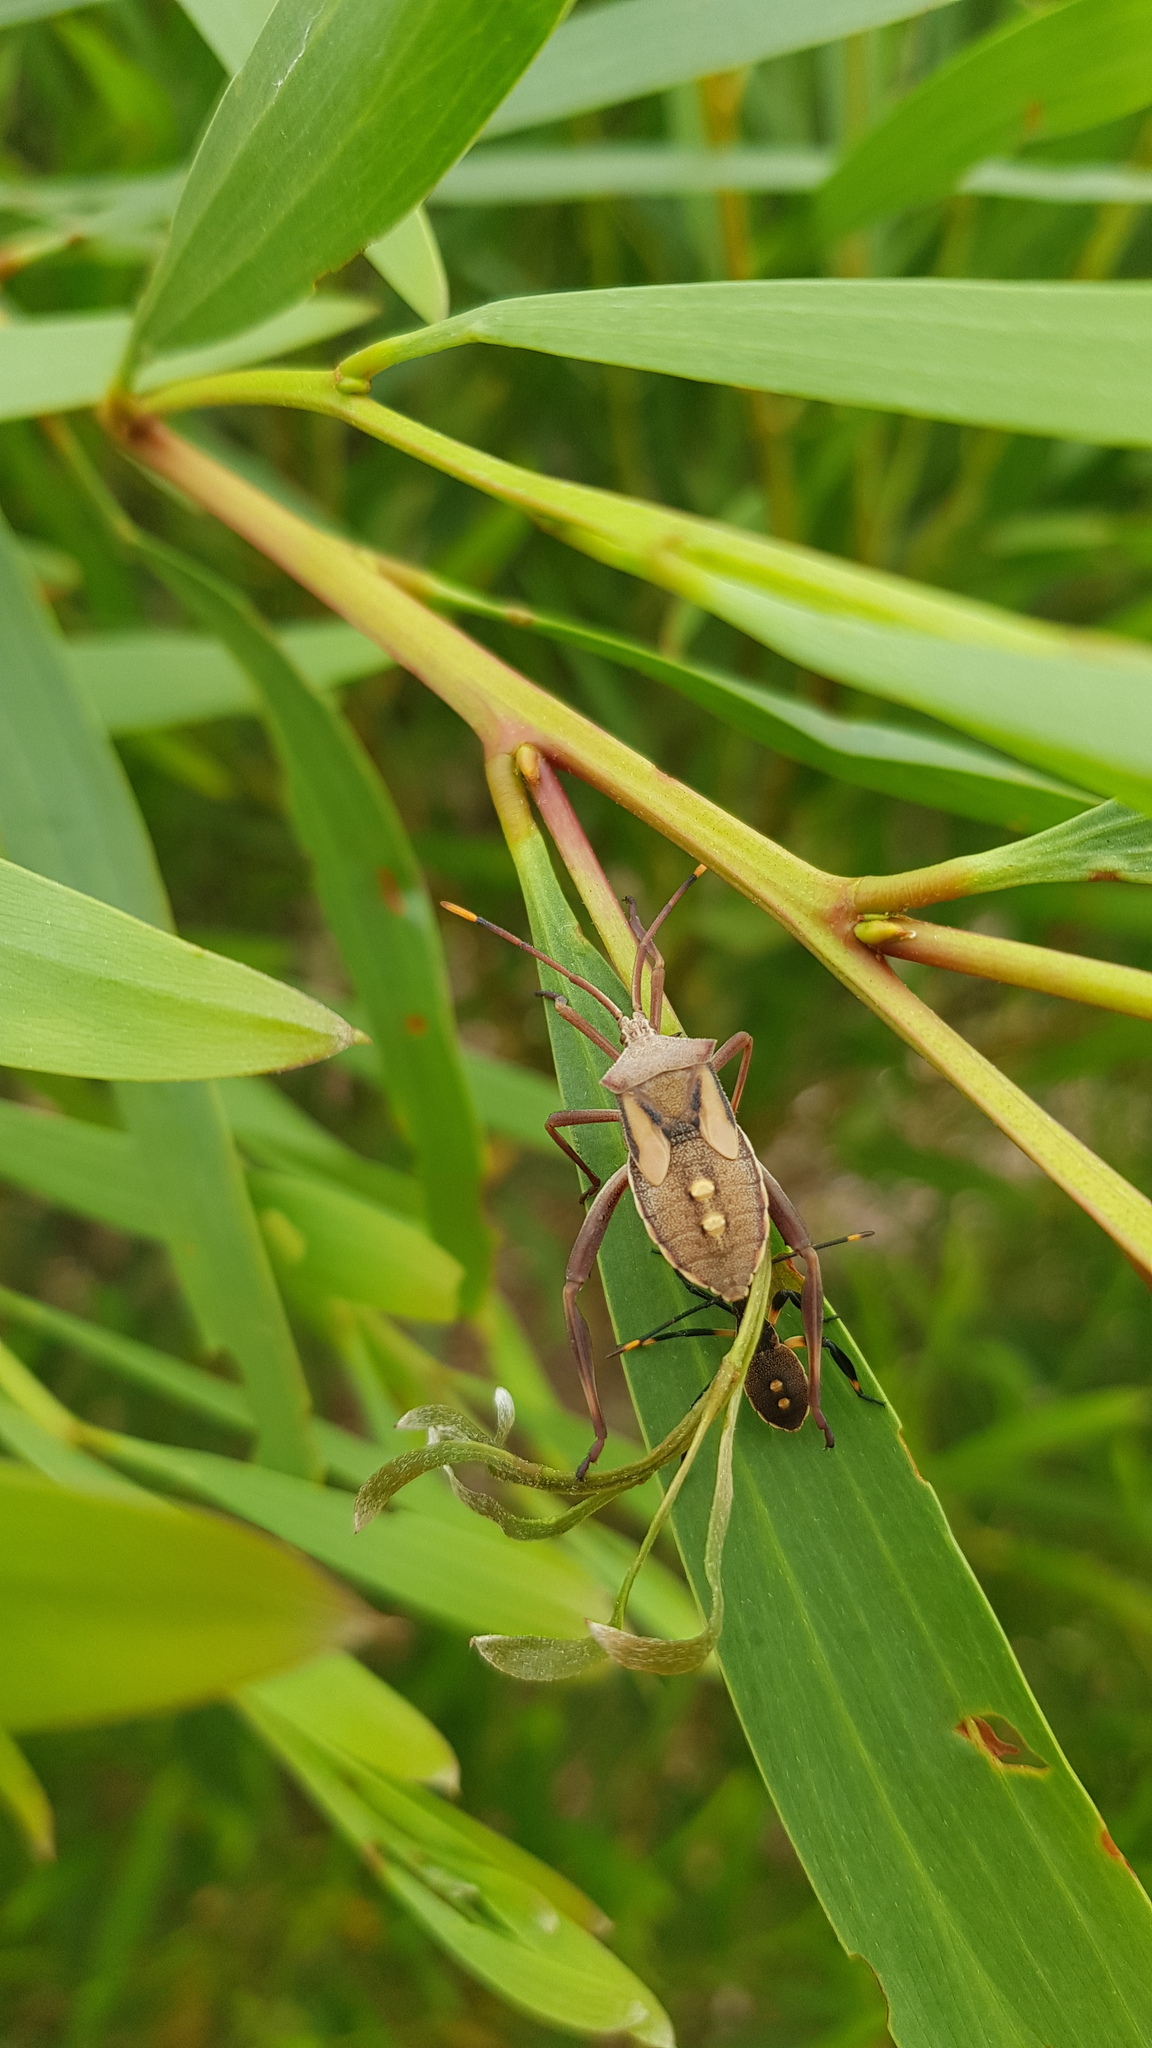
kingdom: Animalia
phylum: Arthropoda
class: Insecta
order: Hemiptera
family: Coreidae
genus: Mictis
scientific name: Mictis profana
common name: Crusader bug
